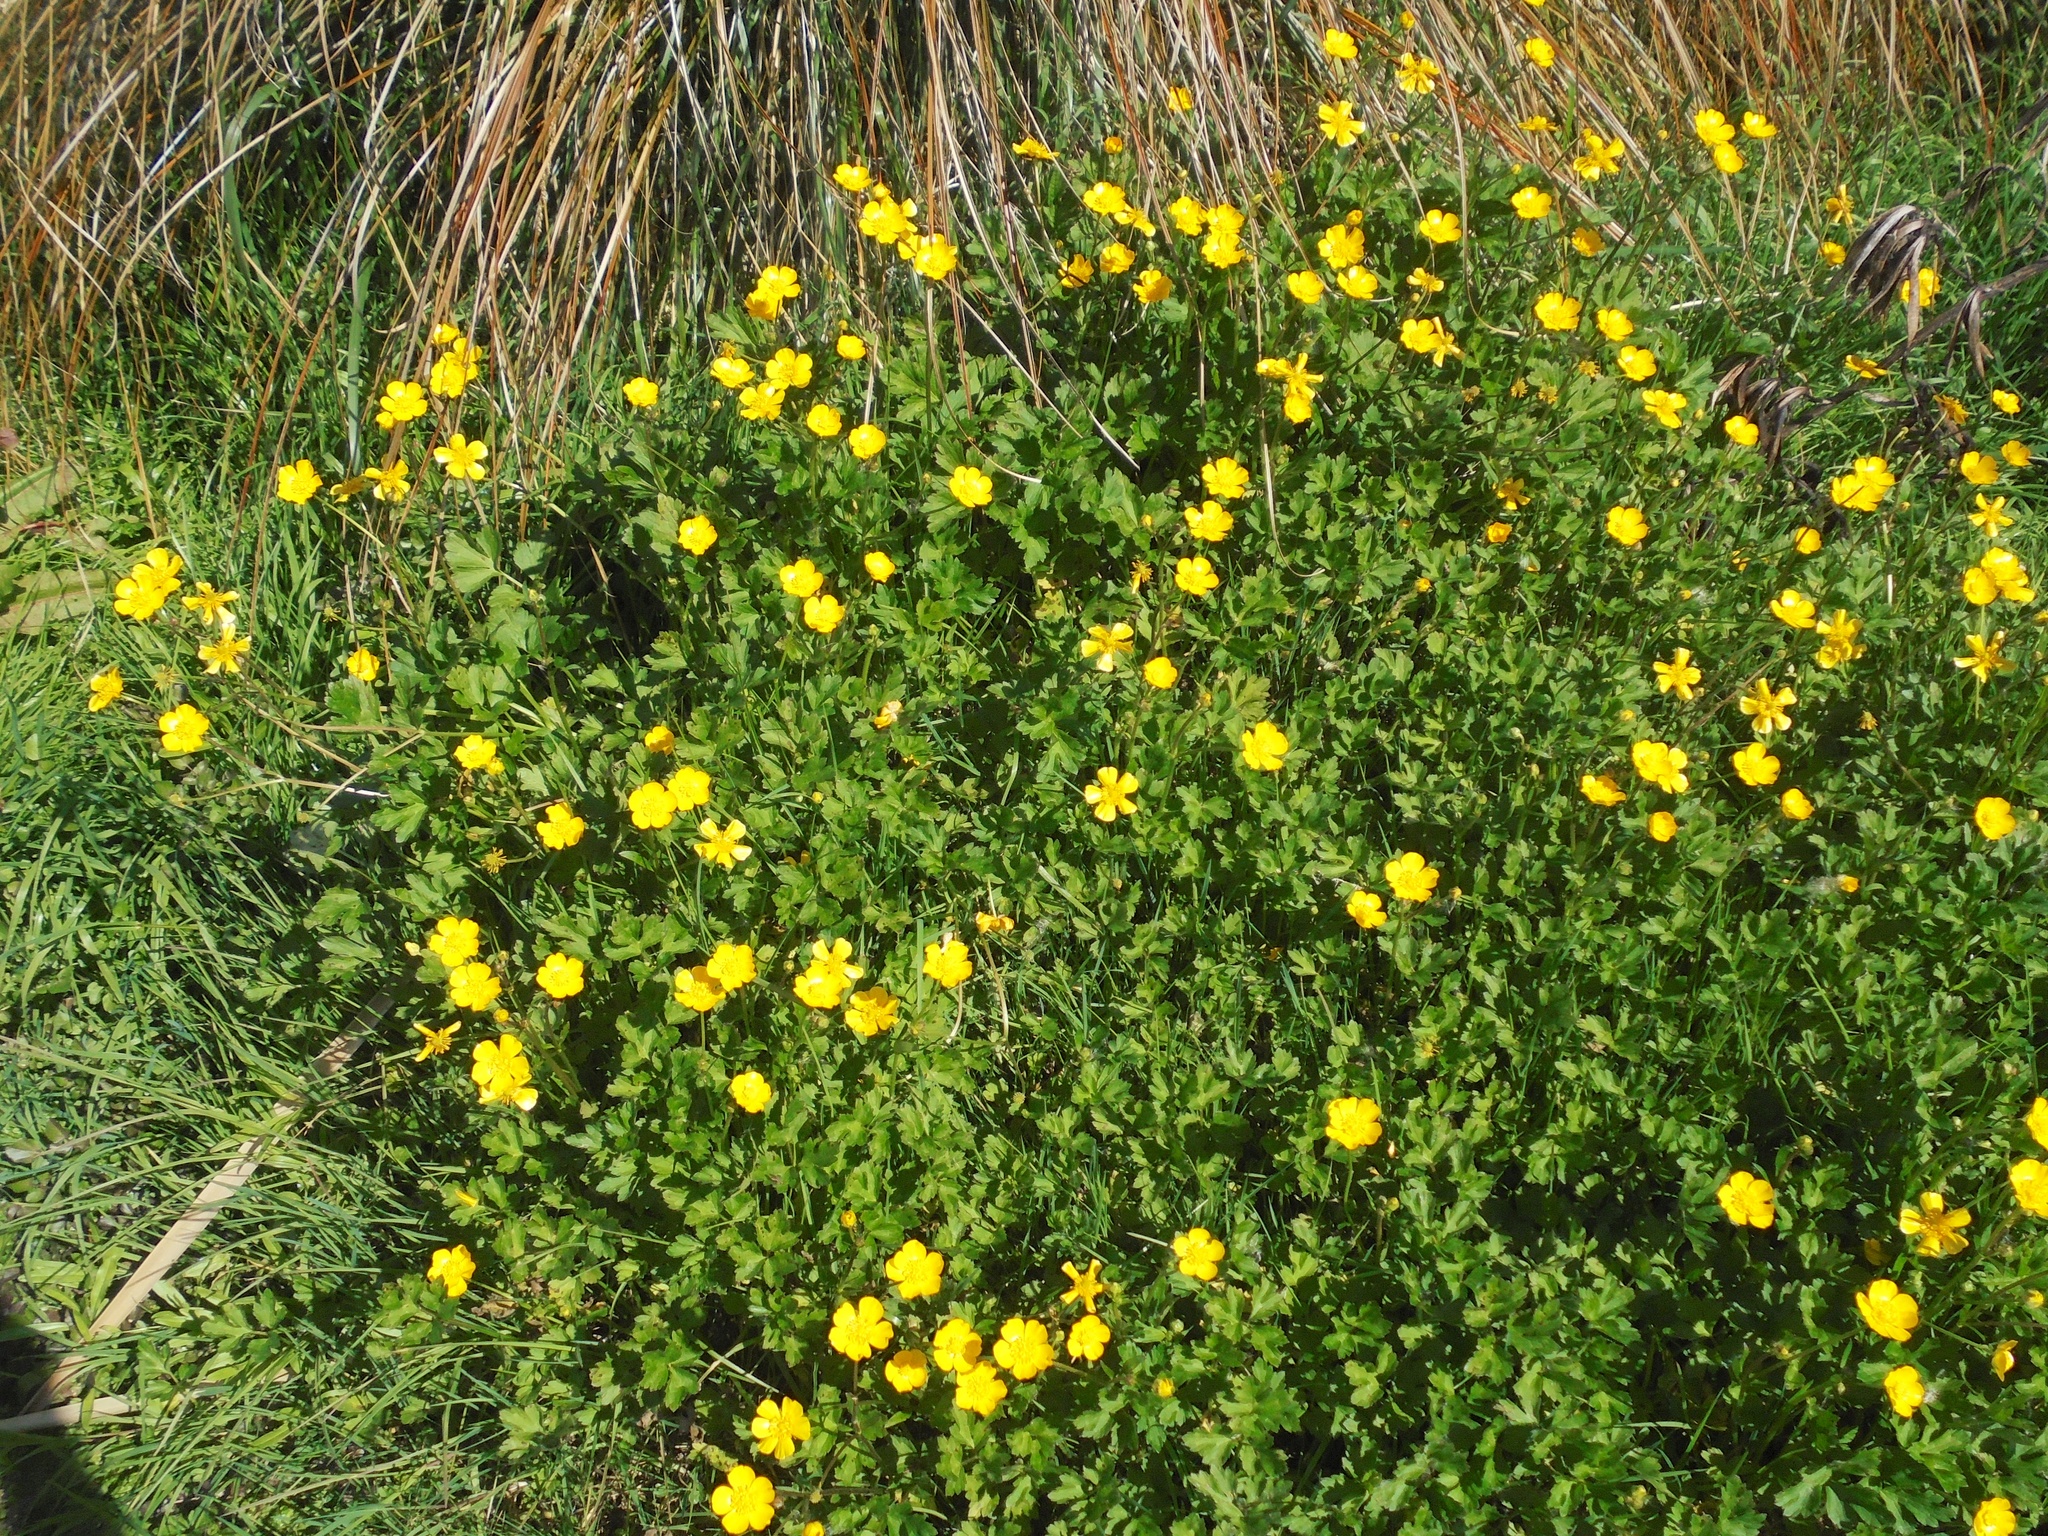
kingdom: Plantae
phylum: Tracheophyta
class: Magnoliopsida
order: Ranunculales
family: Ranunculaceae
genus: Ranunculus
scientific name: Ranunculus repens
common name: Creeping buttercup
